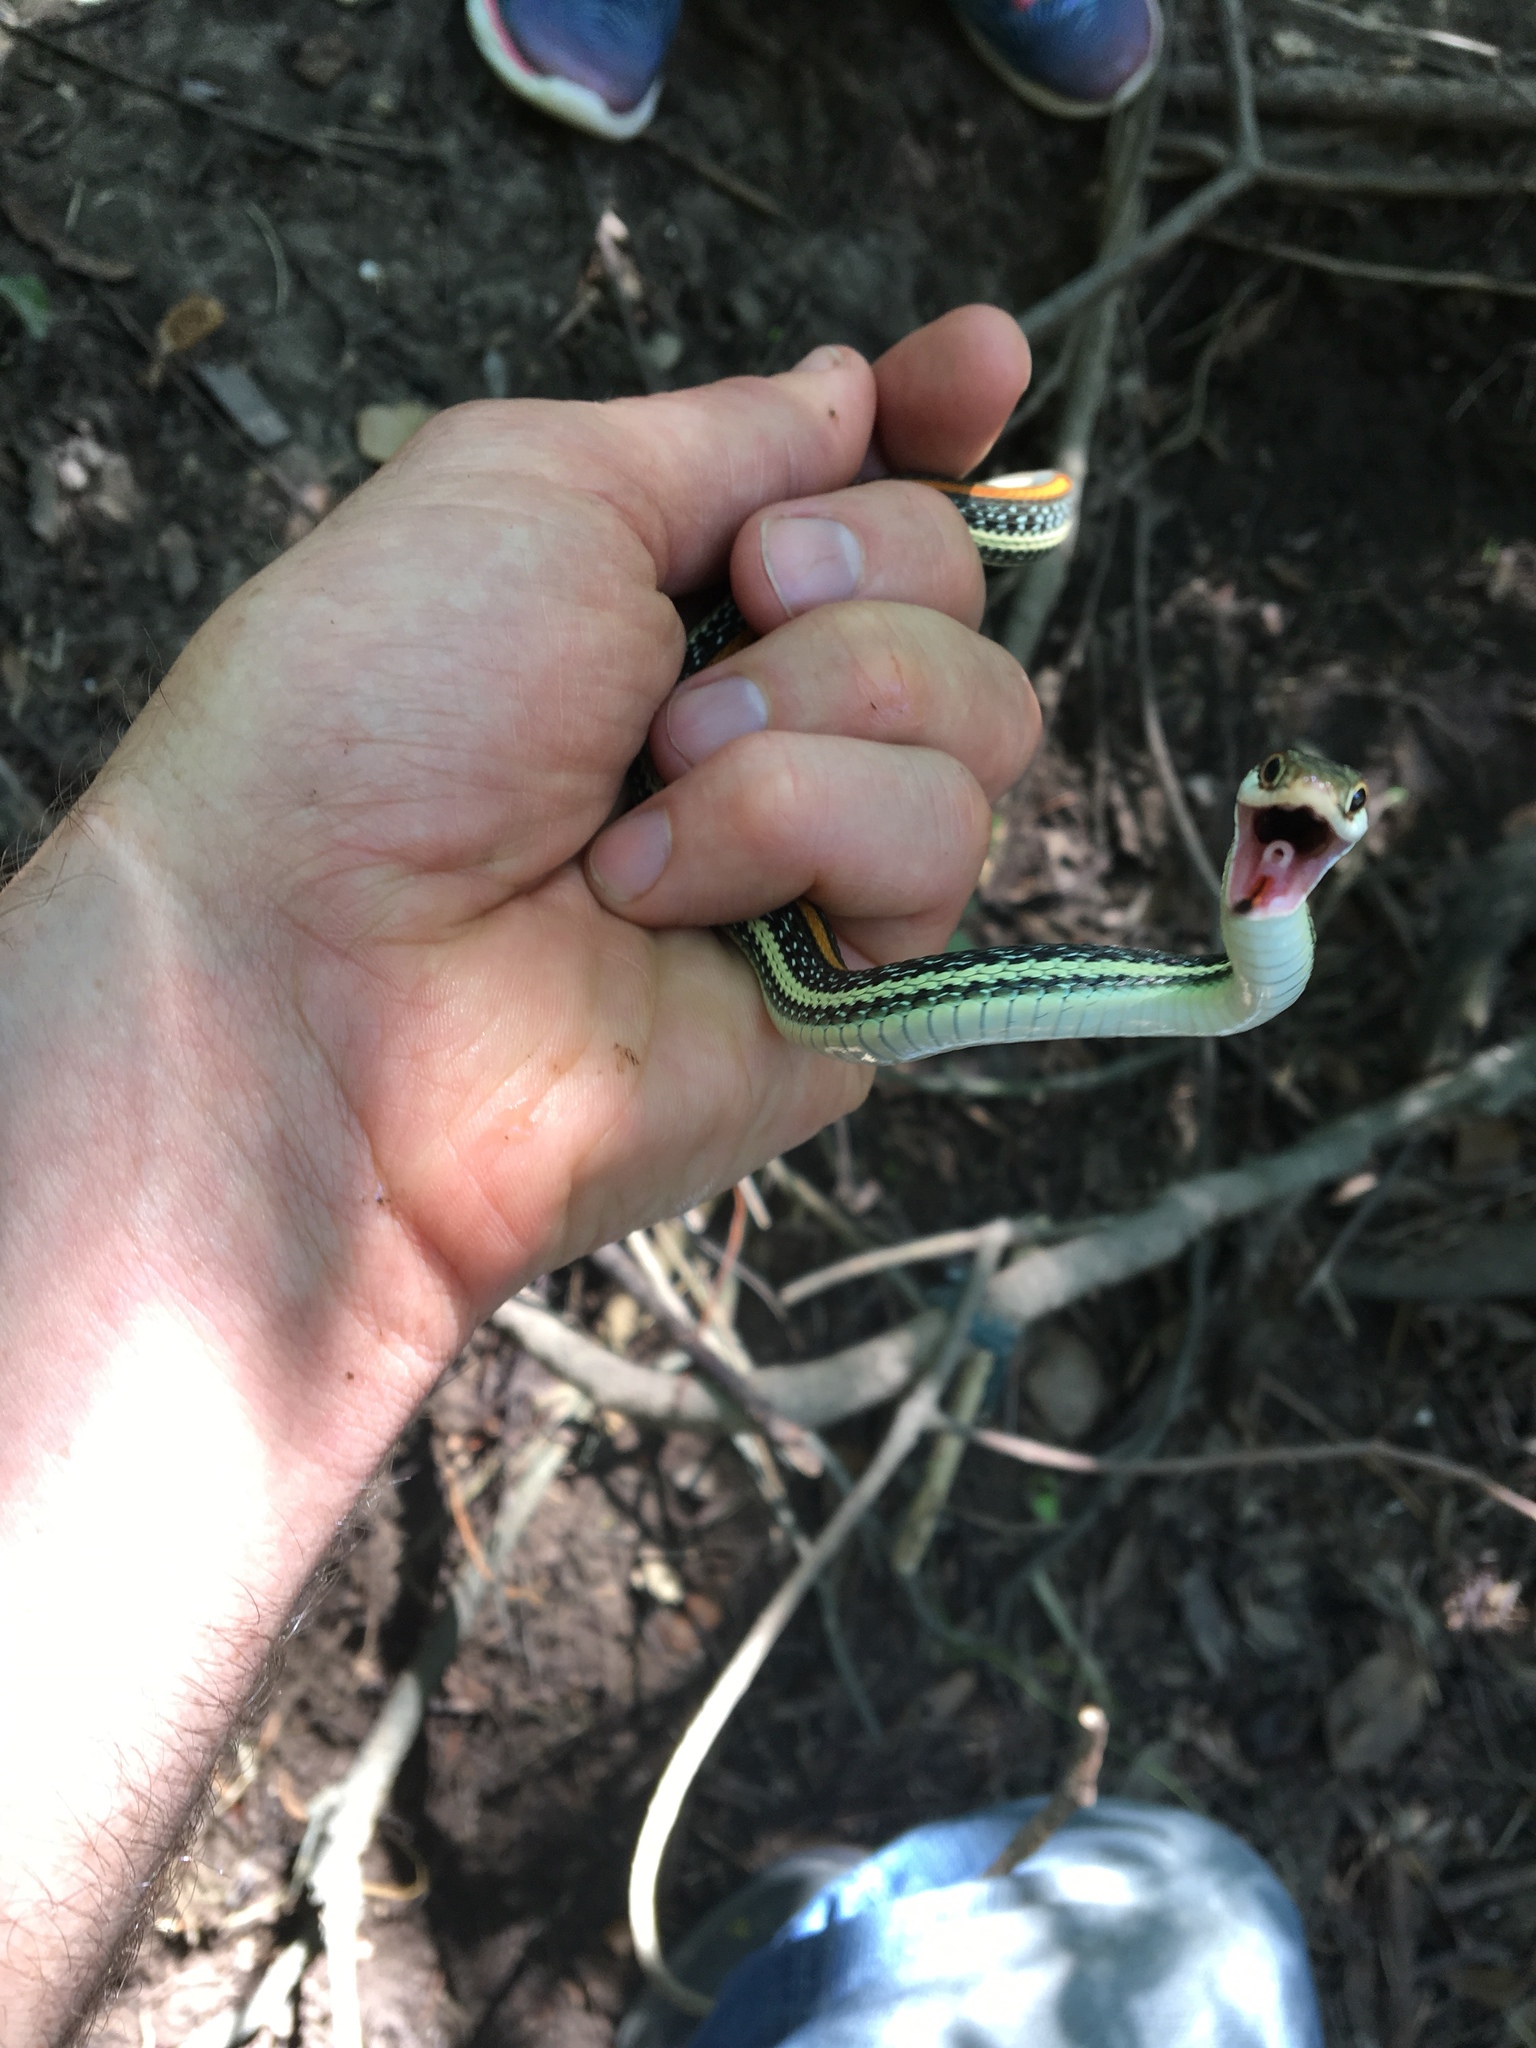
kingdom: Animalia
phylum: Chordata
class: Squamata
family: Colubridae
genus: Thamnophis
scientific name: Thamnophis proximus
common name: Western ribbon snake
